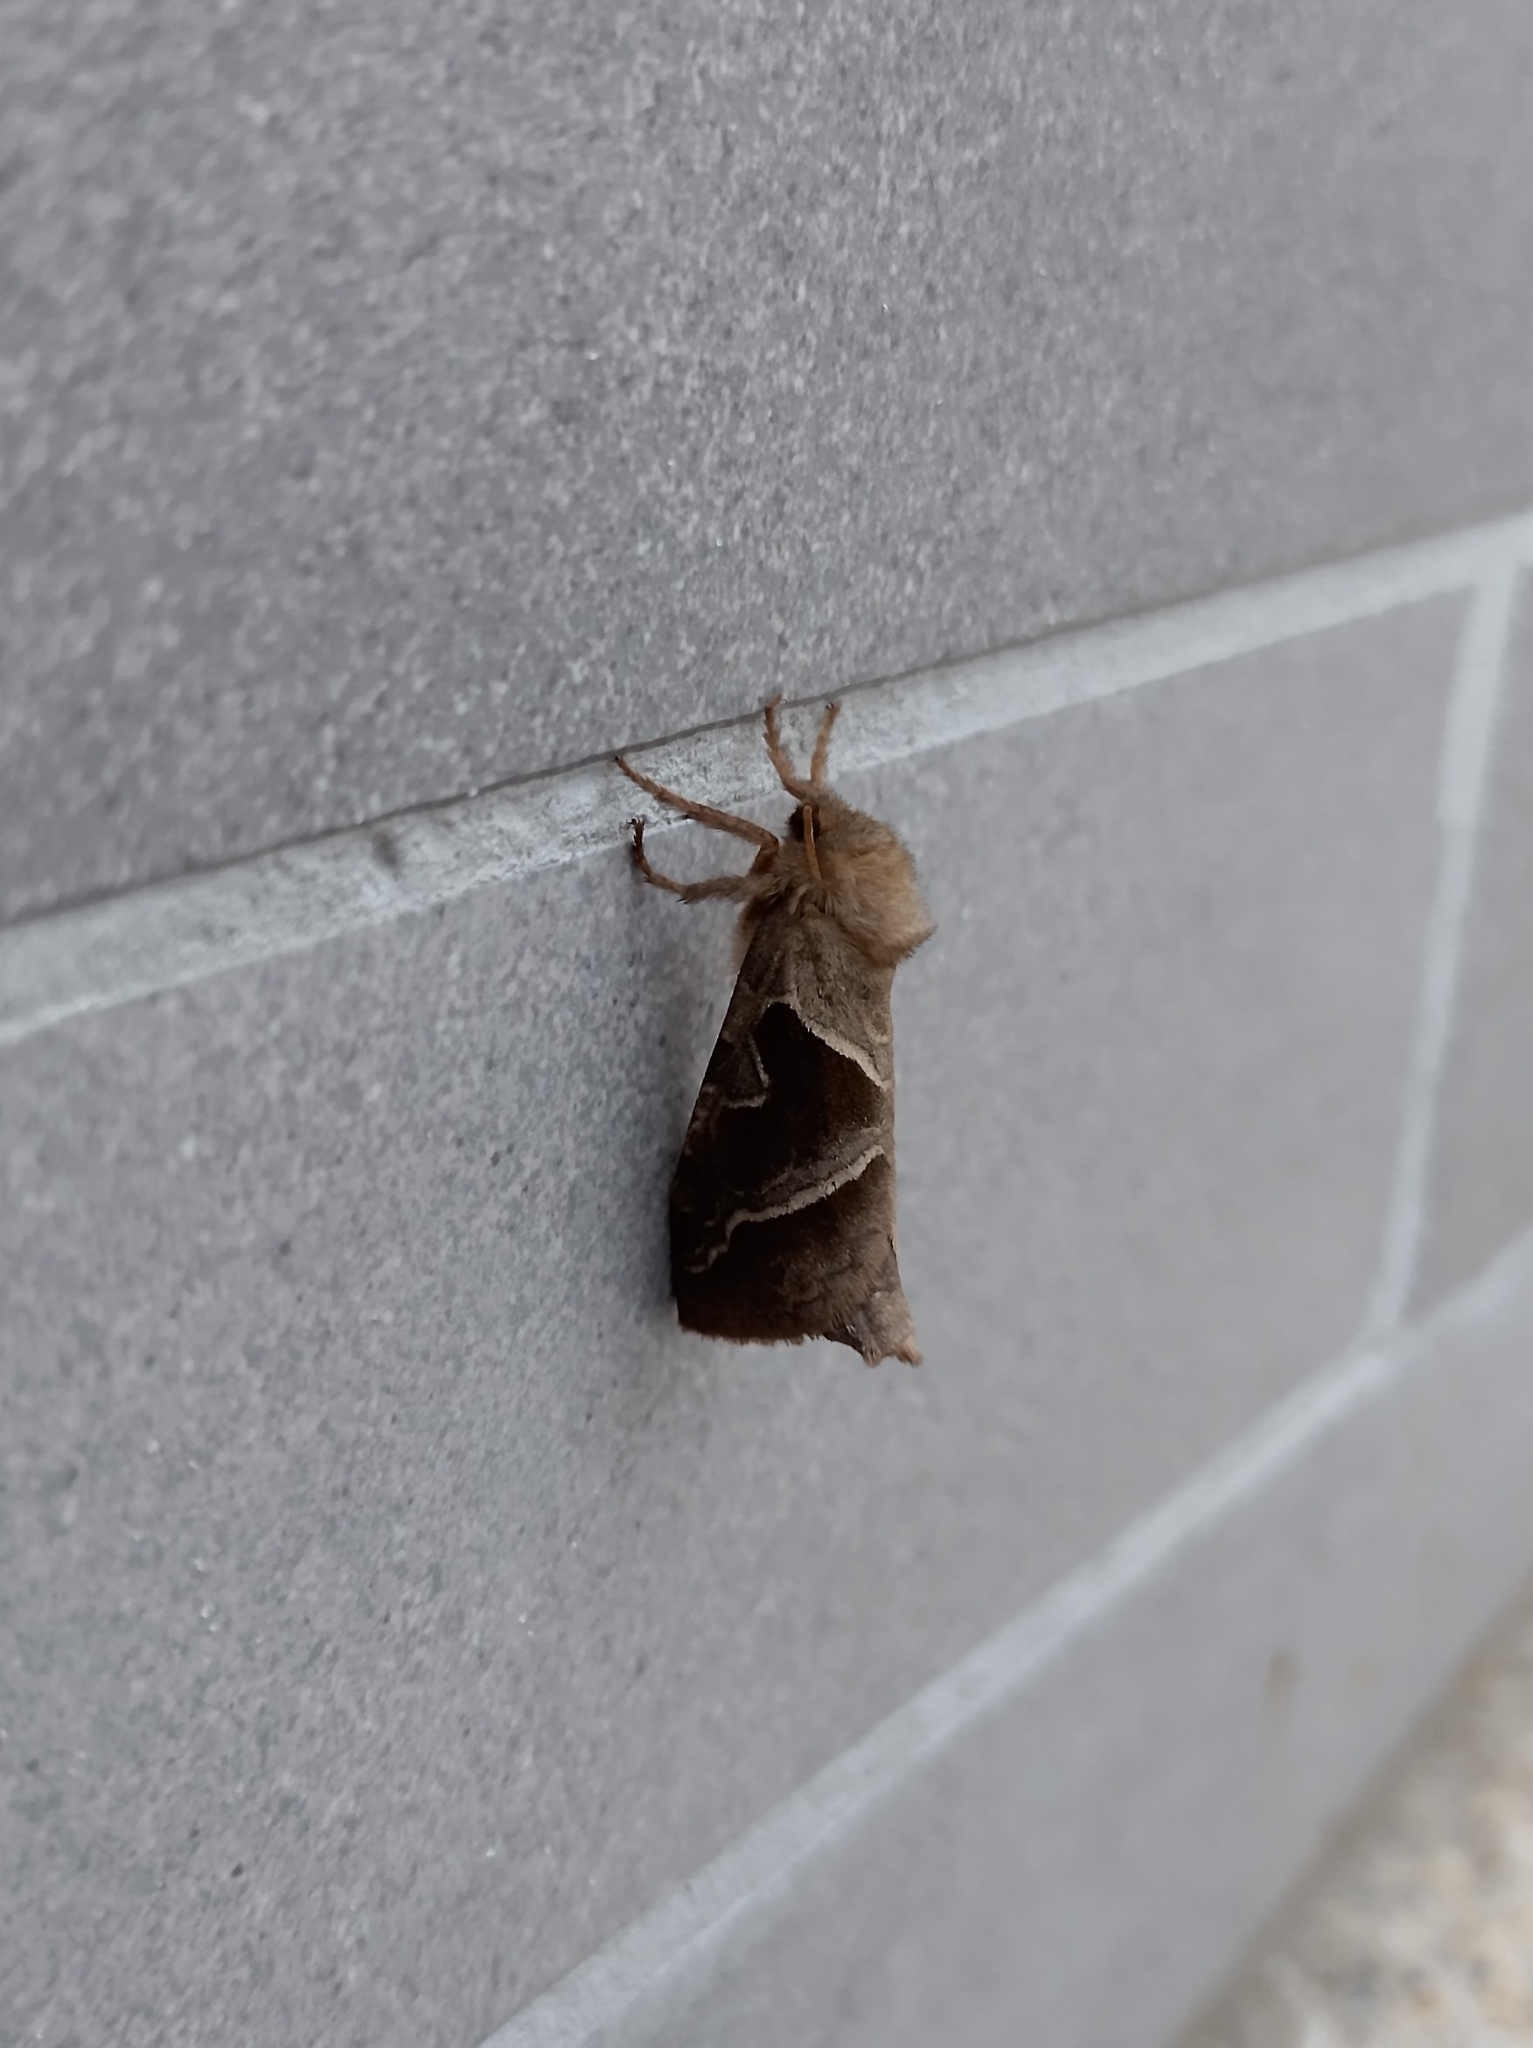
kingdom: Animalia
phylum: Arthropoda
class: Insecta
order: Lepidoptera
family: Hepialidae
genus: Triodia
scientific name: Triodia sylvina
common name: Orange swift
